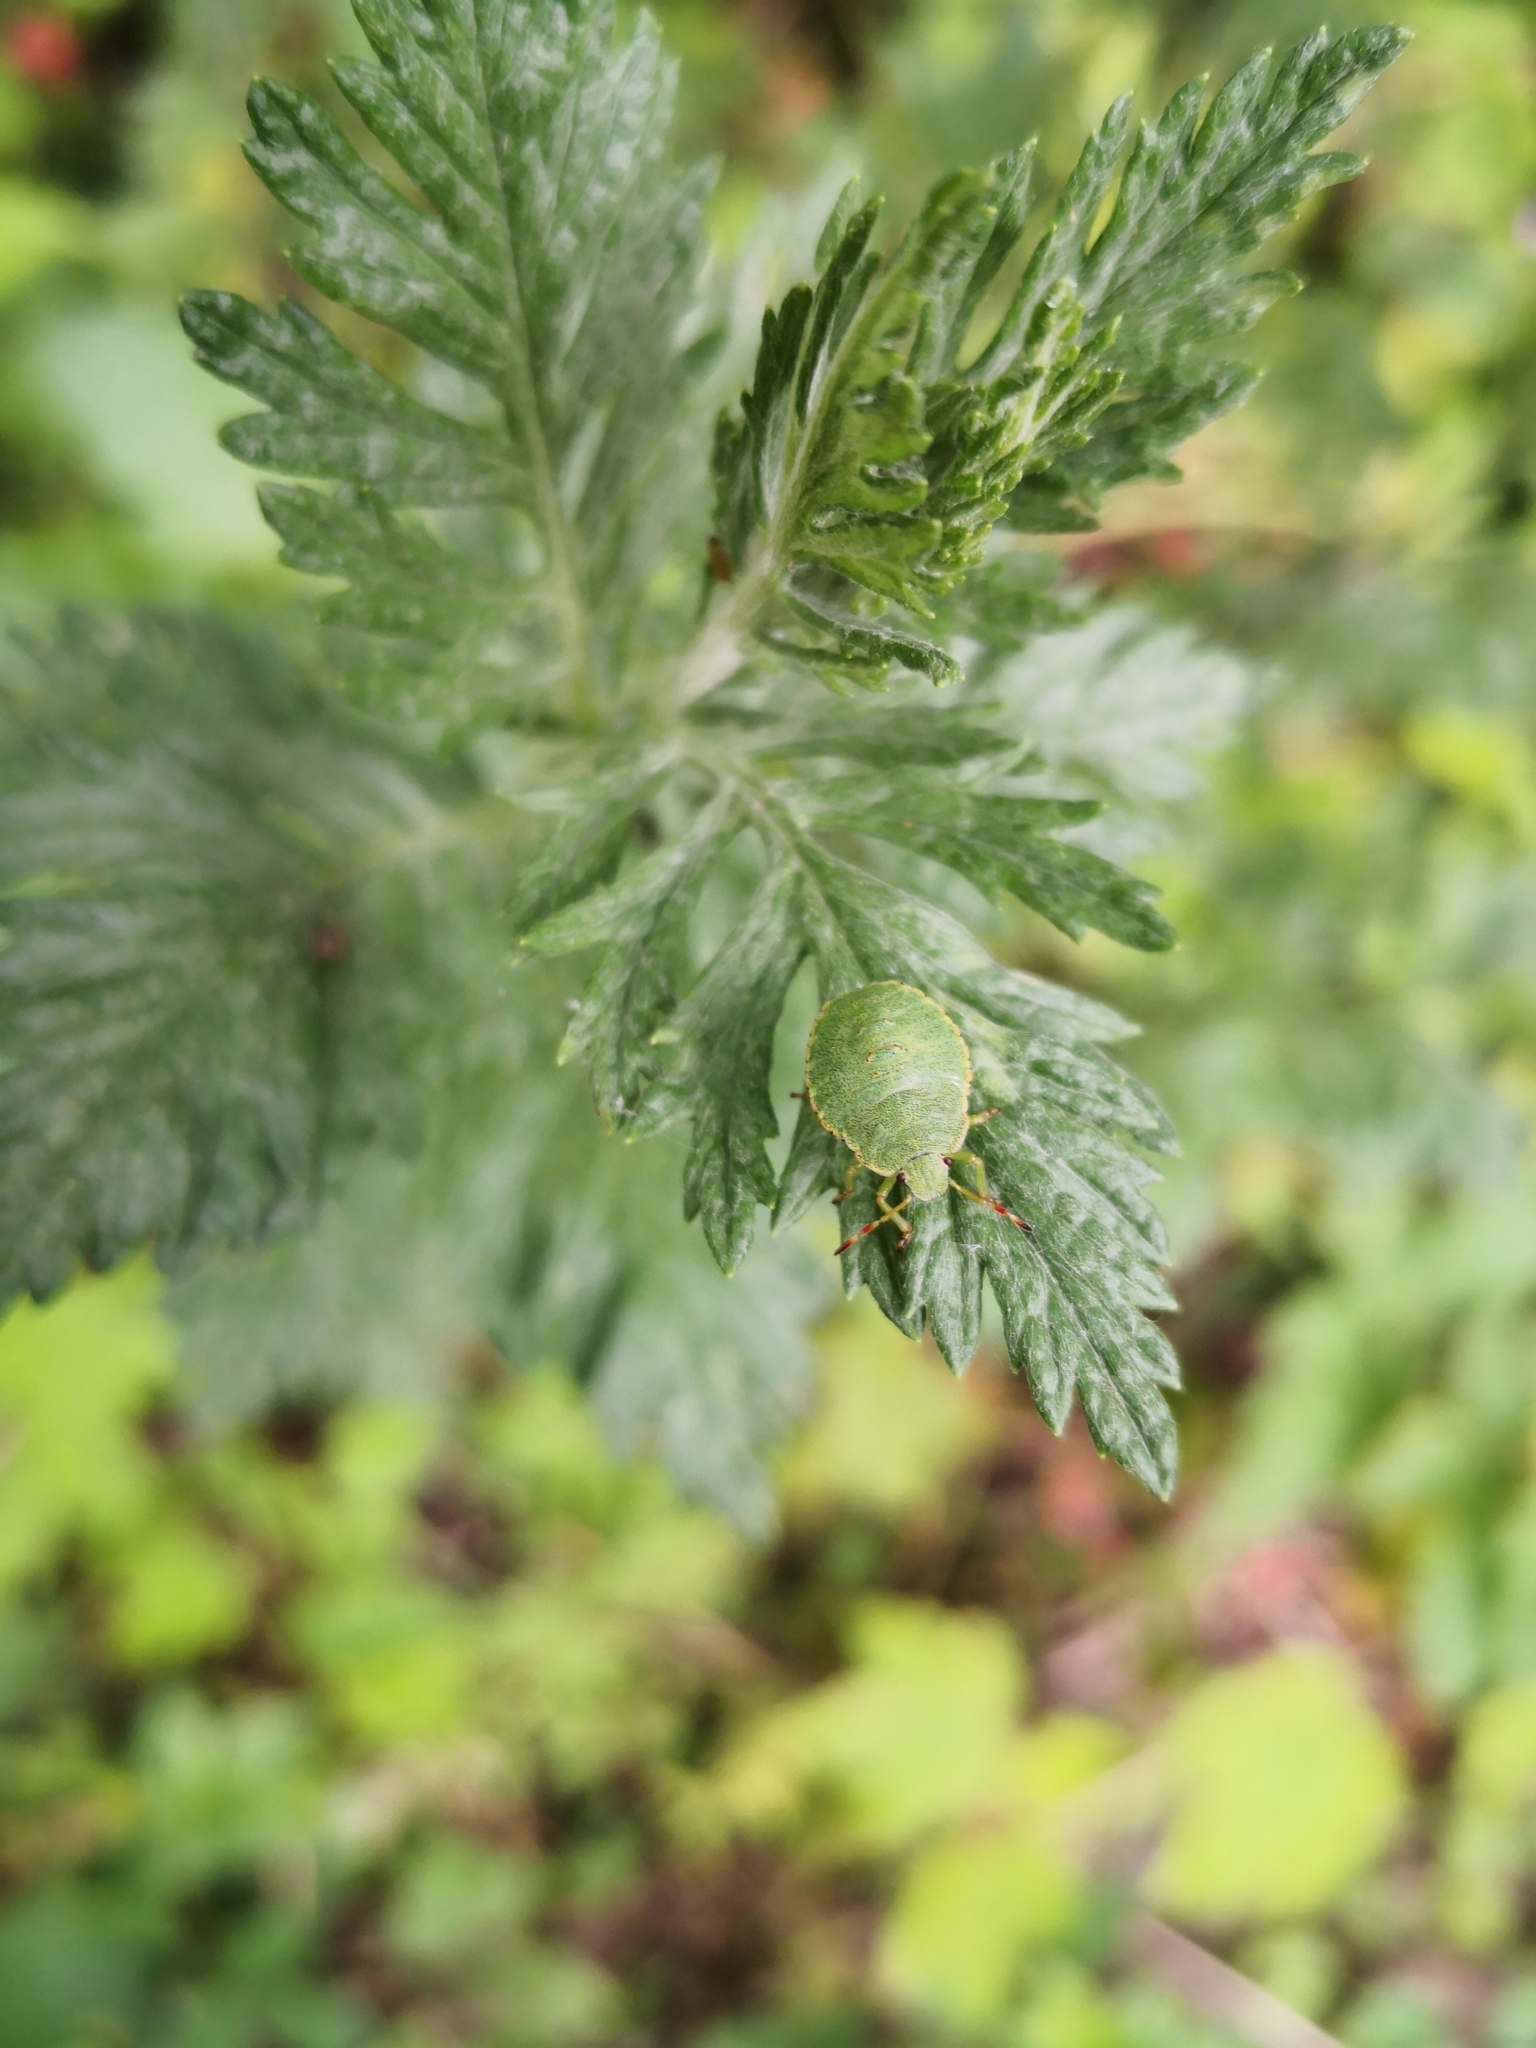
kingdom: Animalia
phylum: Arthropoda
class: Insecta
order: Hemiptera
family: Pentatomidae
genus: Palomena
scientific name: Palomena prasina
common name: Green shieldbug
